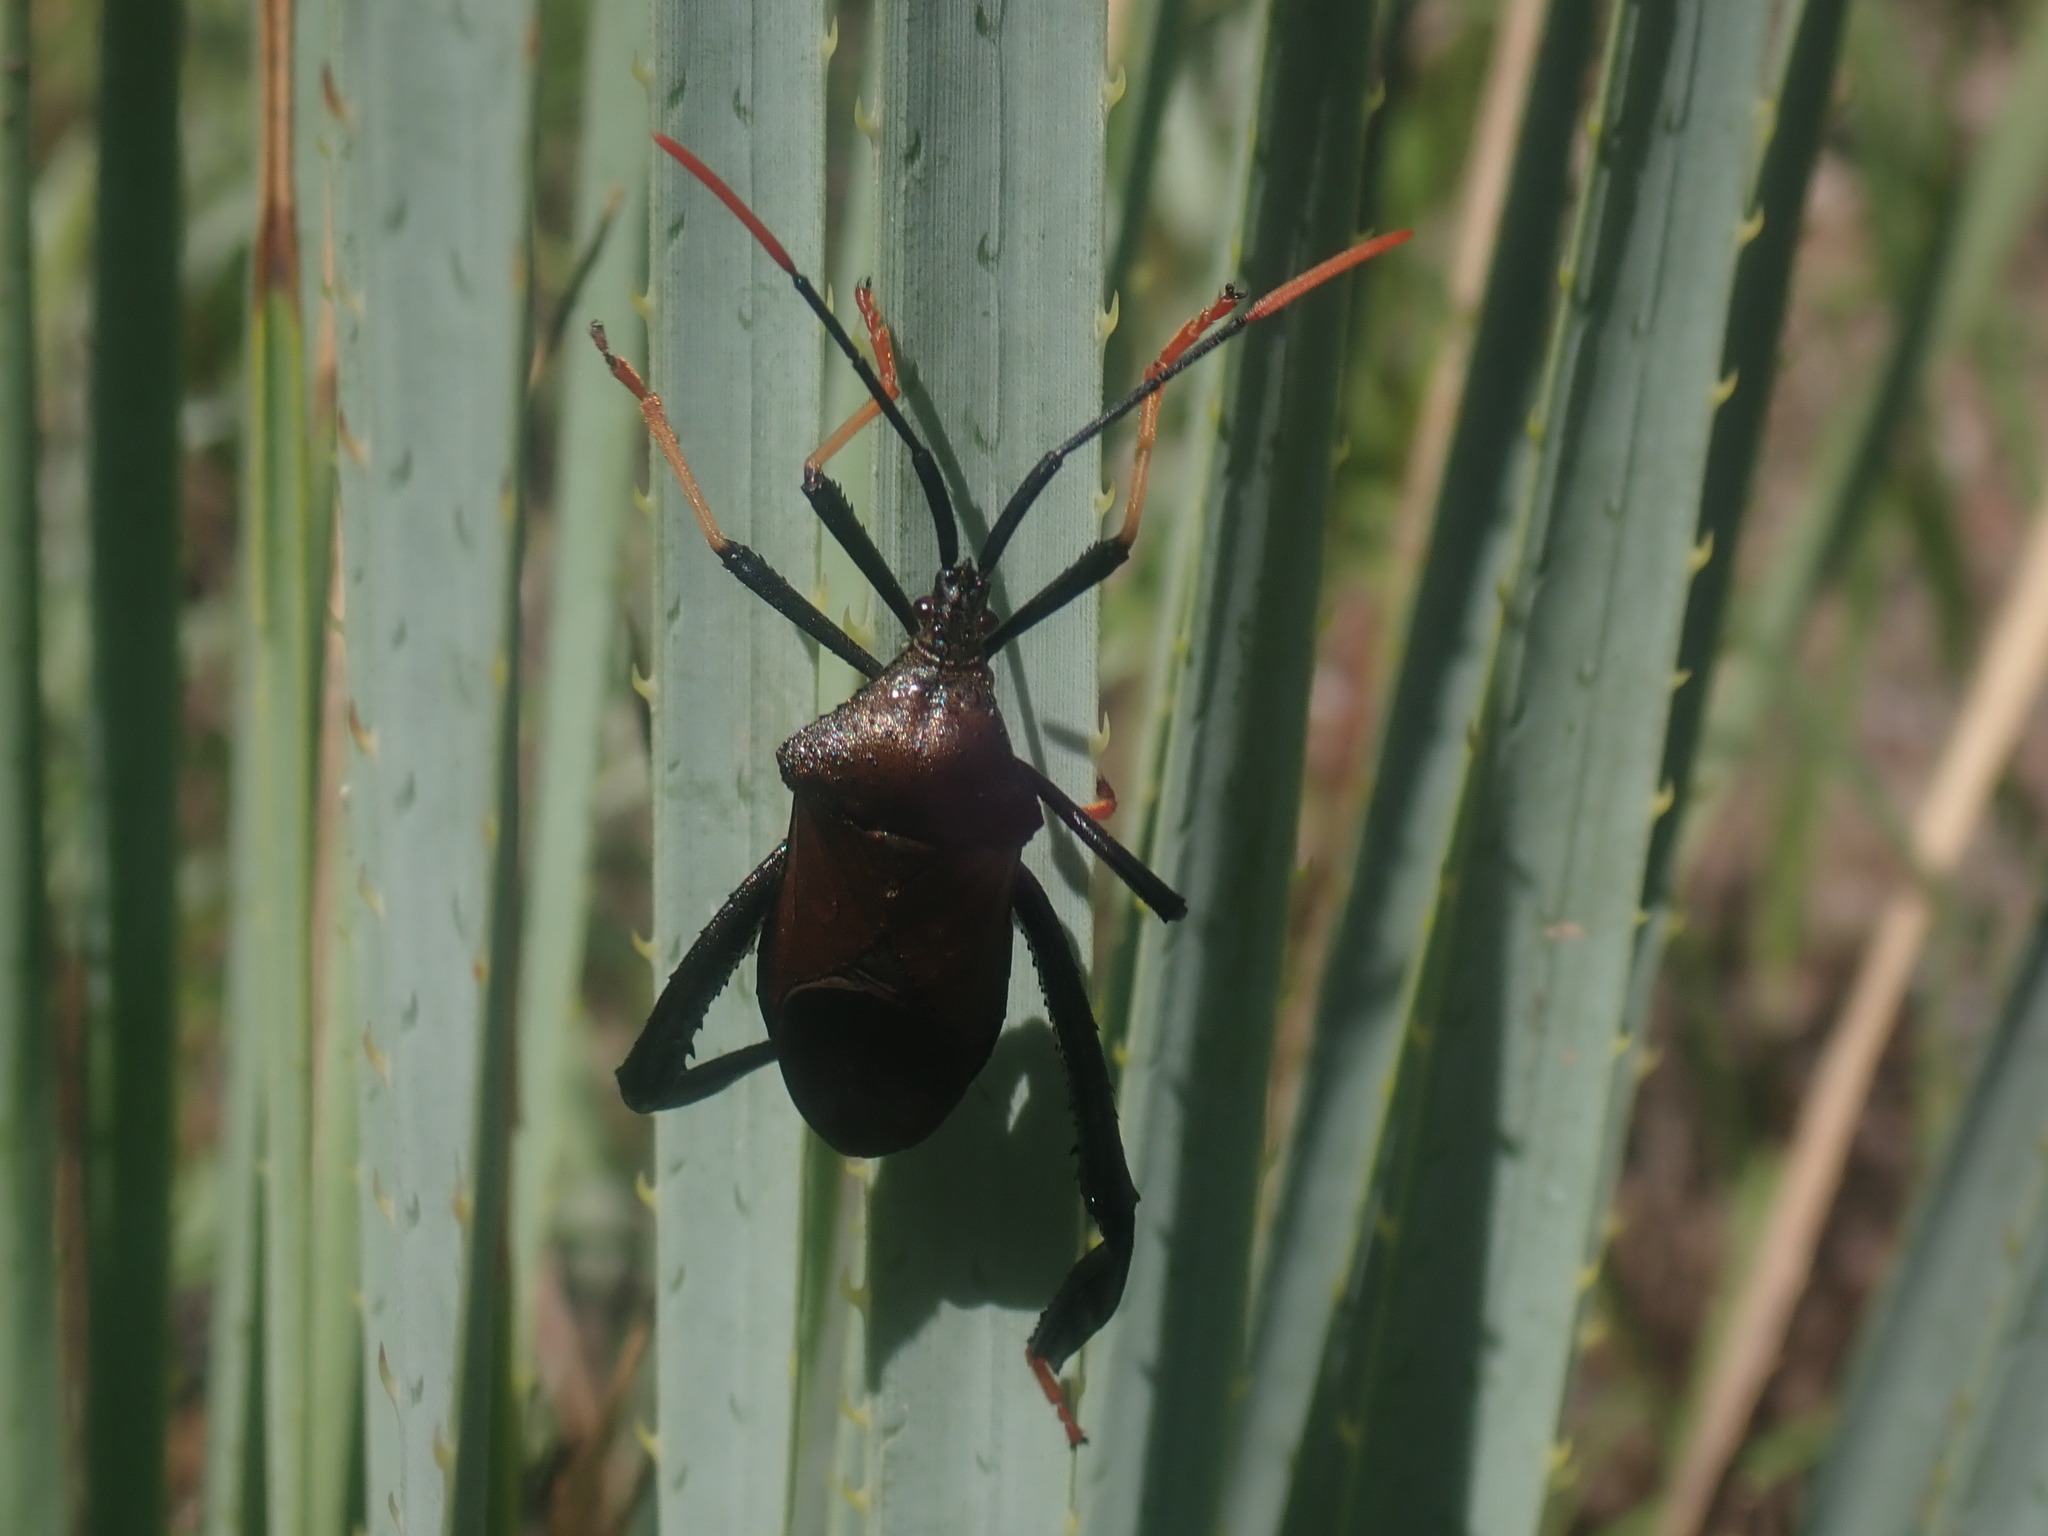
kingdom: Animalia
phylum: Arthropoda
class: Insecta
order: Hemiptera
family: Coreidae
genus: Acanthocephala
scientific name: Acanthocephala thomasi
